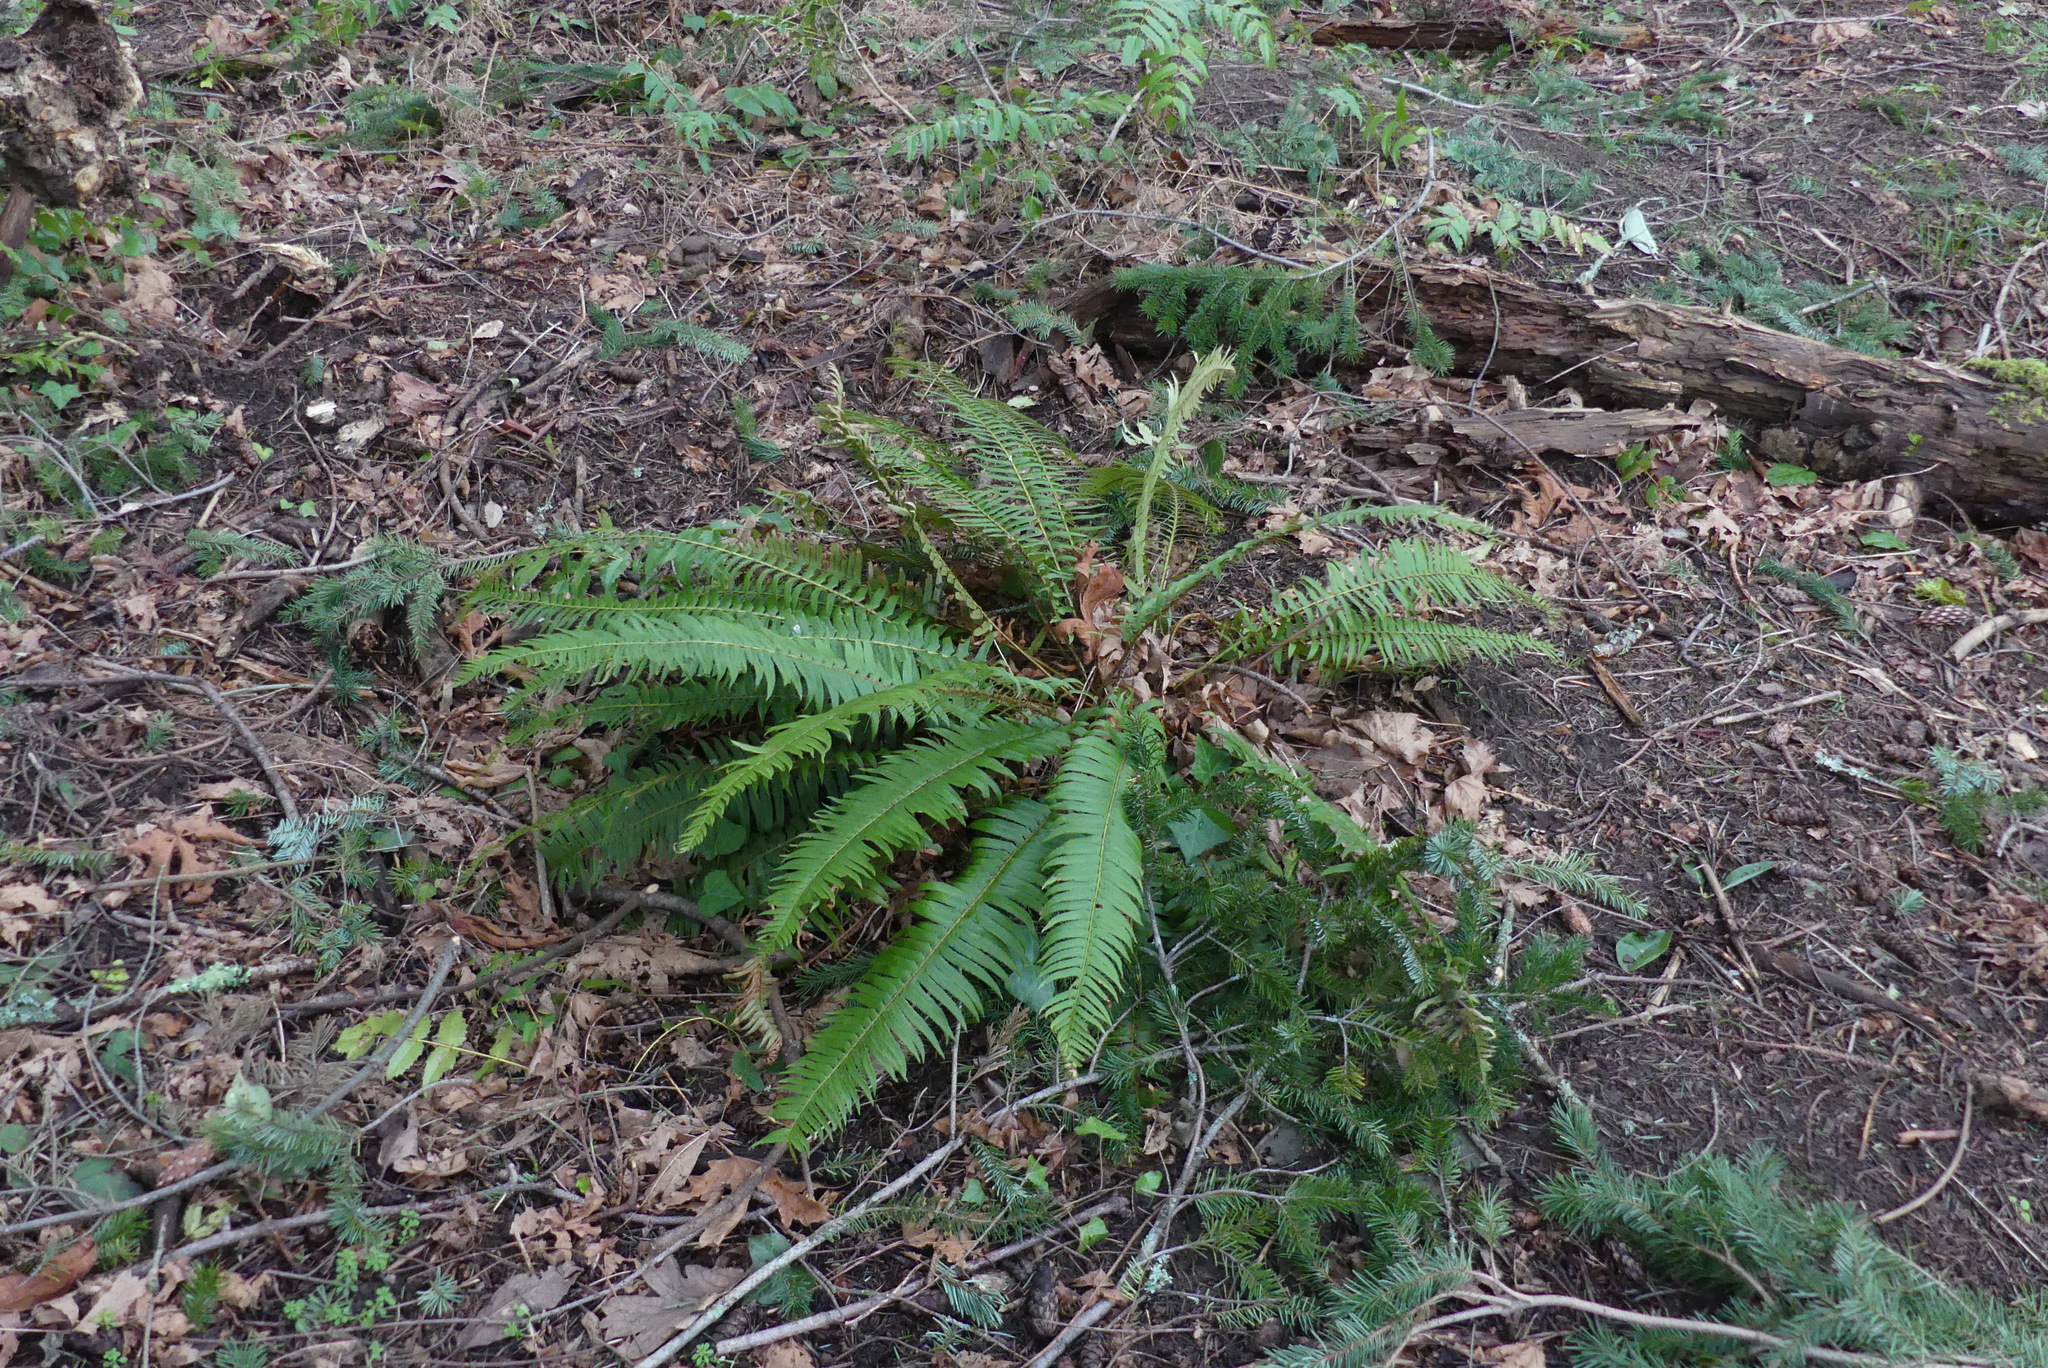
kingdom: Plantae
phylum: Tracheophyta
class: Polypodiopsida
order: Polypodiales
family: Dryopteridaceae
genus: Polystichum
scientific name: Polystichum munitum
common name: Western sword-fern
